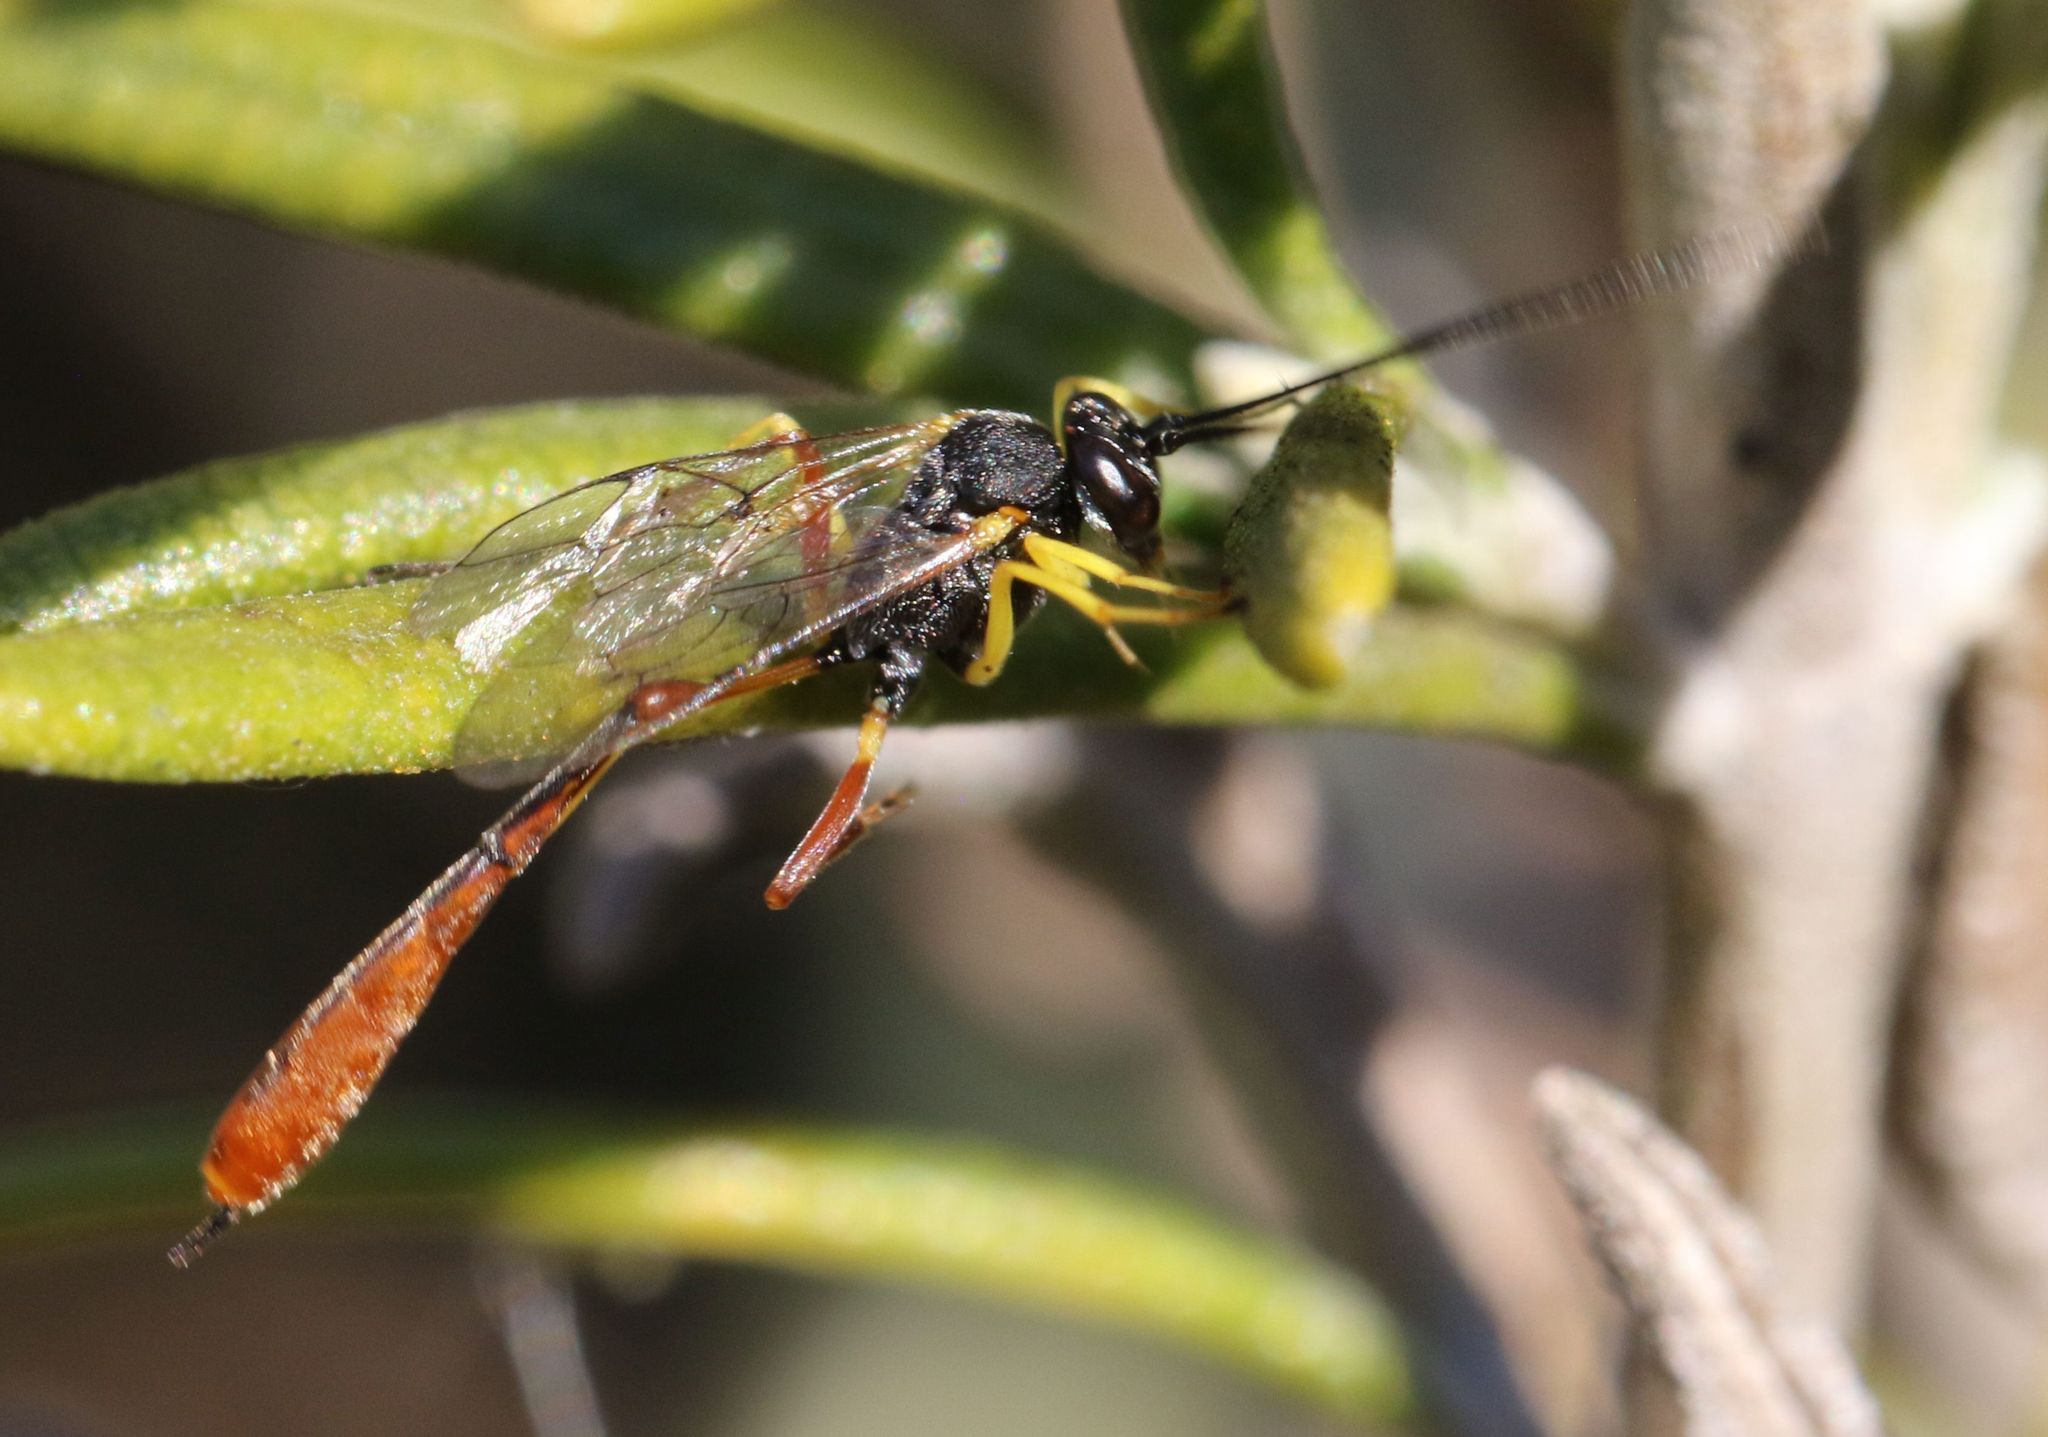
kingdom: Animalia
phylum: Arthropoda
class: Insecta
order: Hymenoptera
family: Ichneumonidae
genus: Charops
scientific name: Charops spinitarsis
